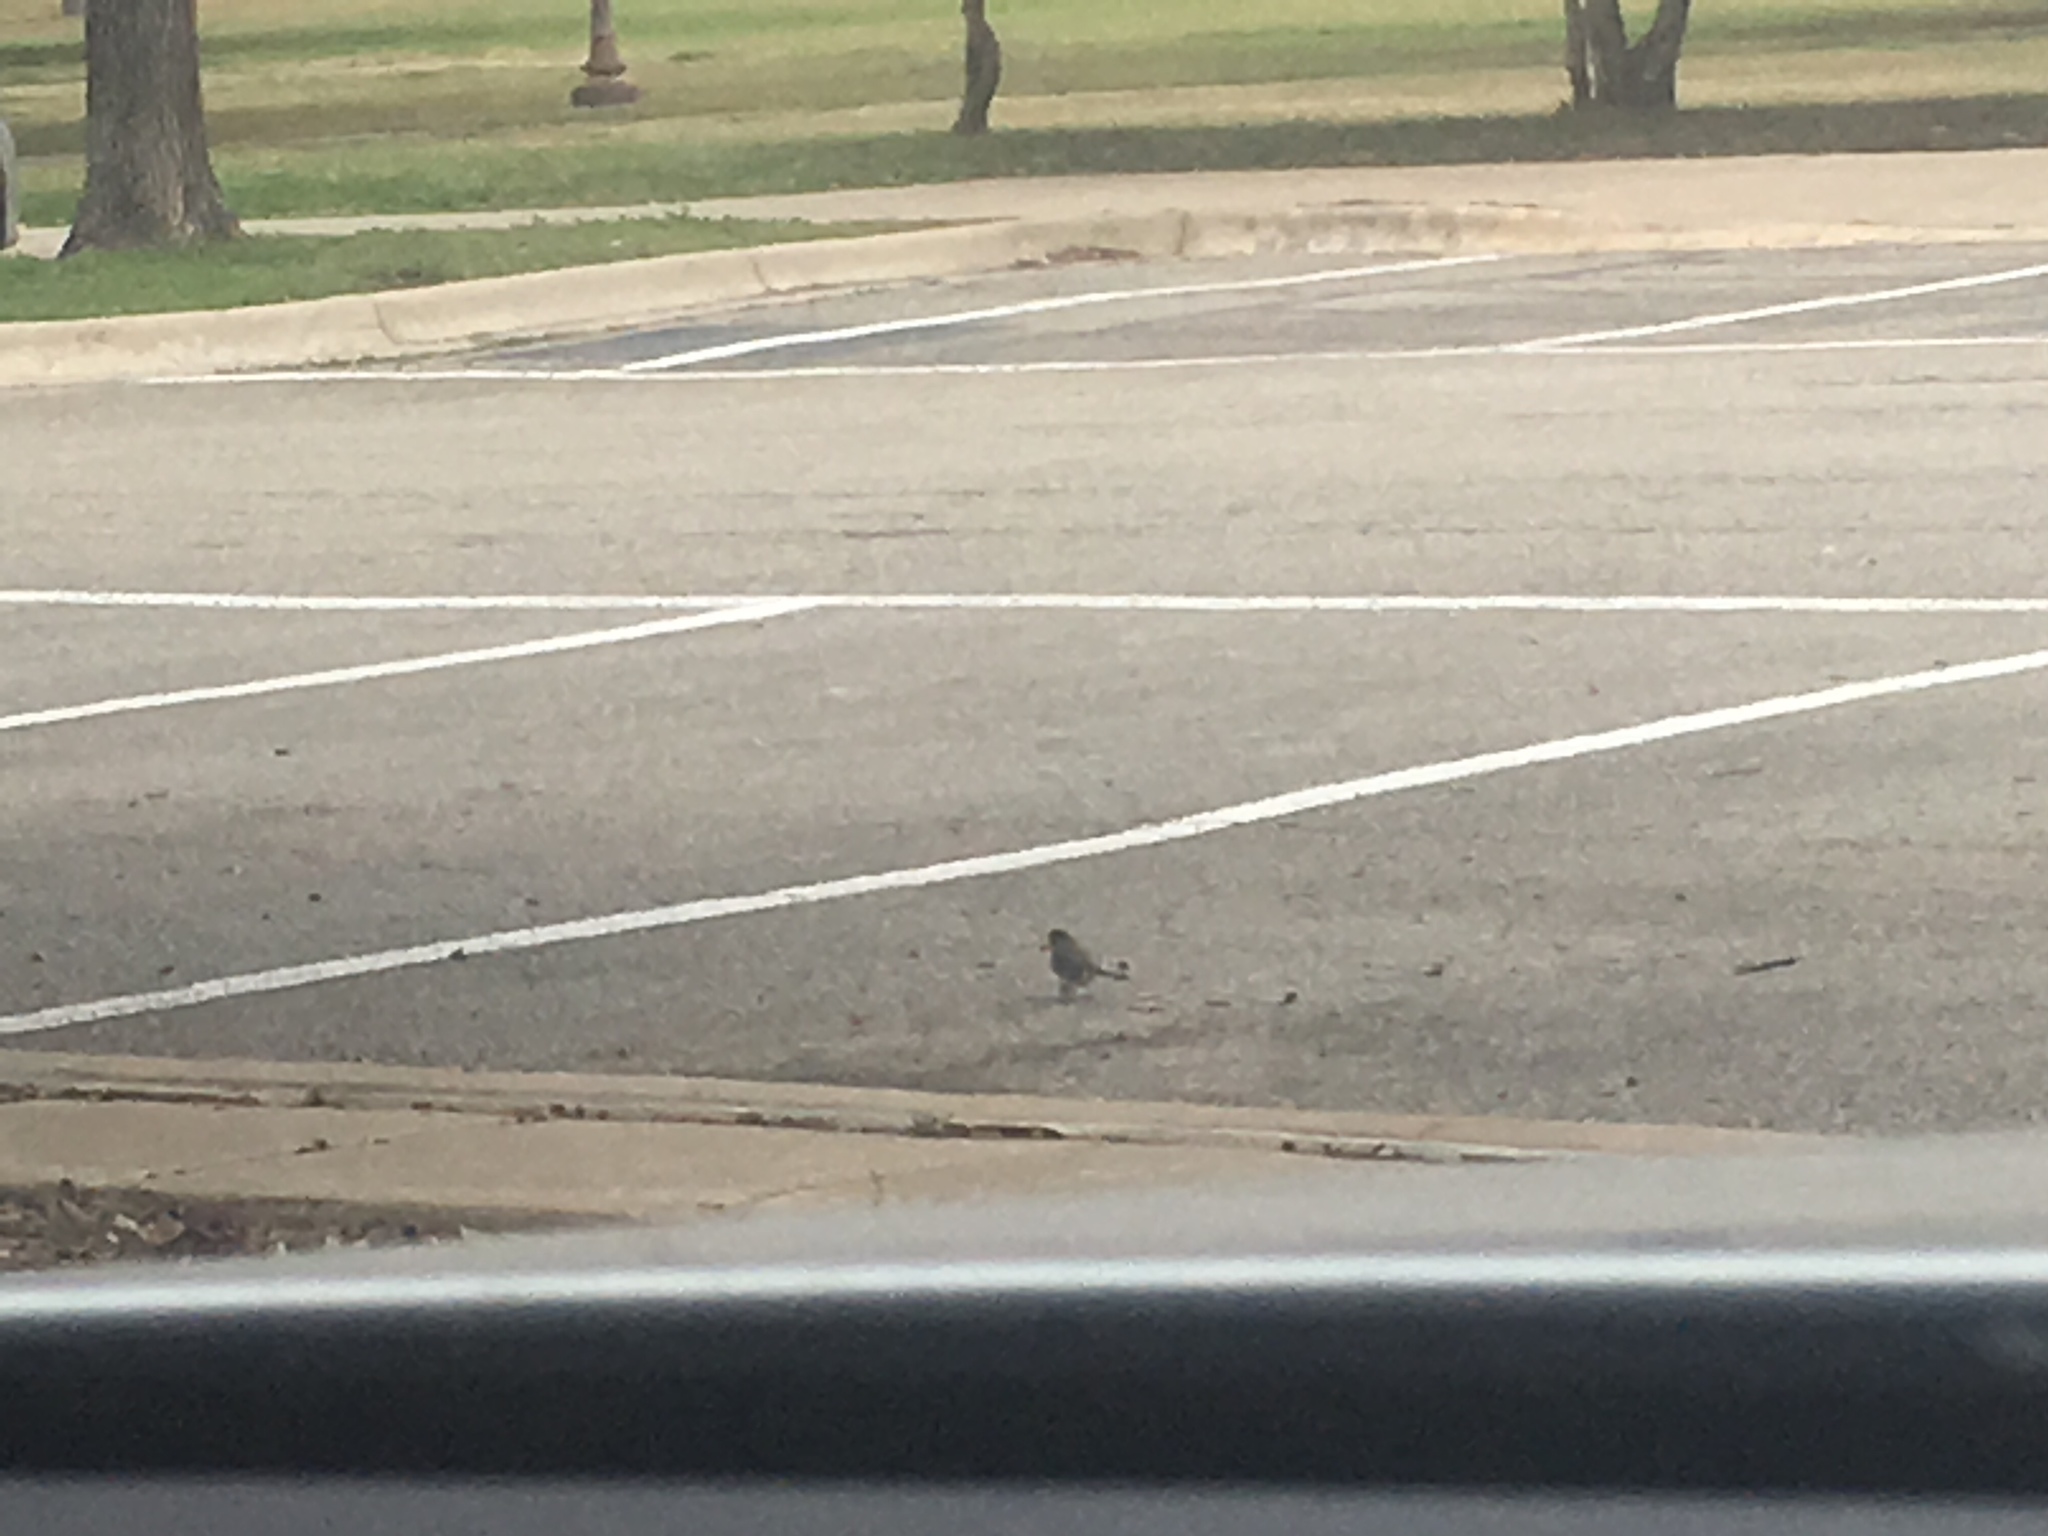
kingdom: Animalia
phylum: Chordata
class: Aves
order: Passeriformes
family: Passerellidae
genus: Junco
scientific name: Junco hyemalis
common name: Dark-eyed junco
